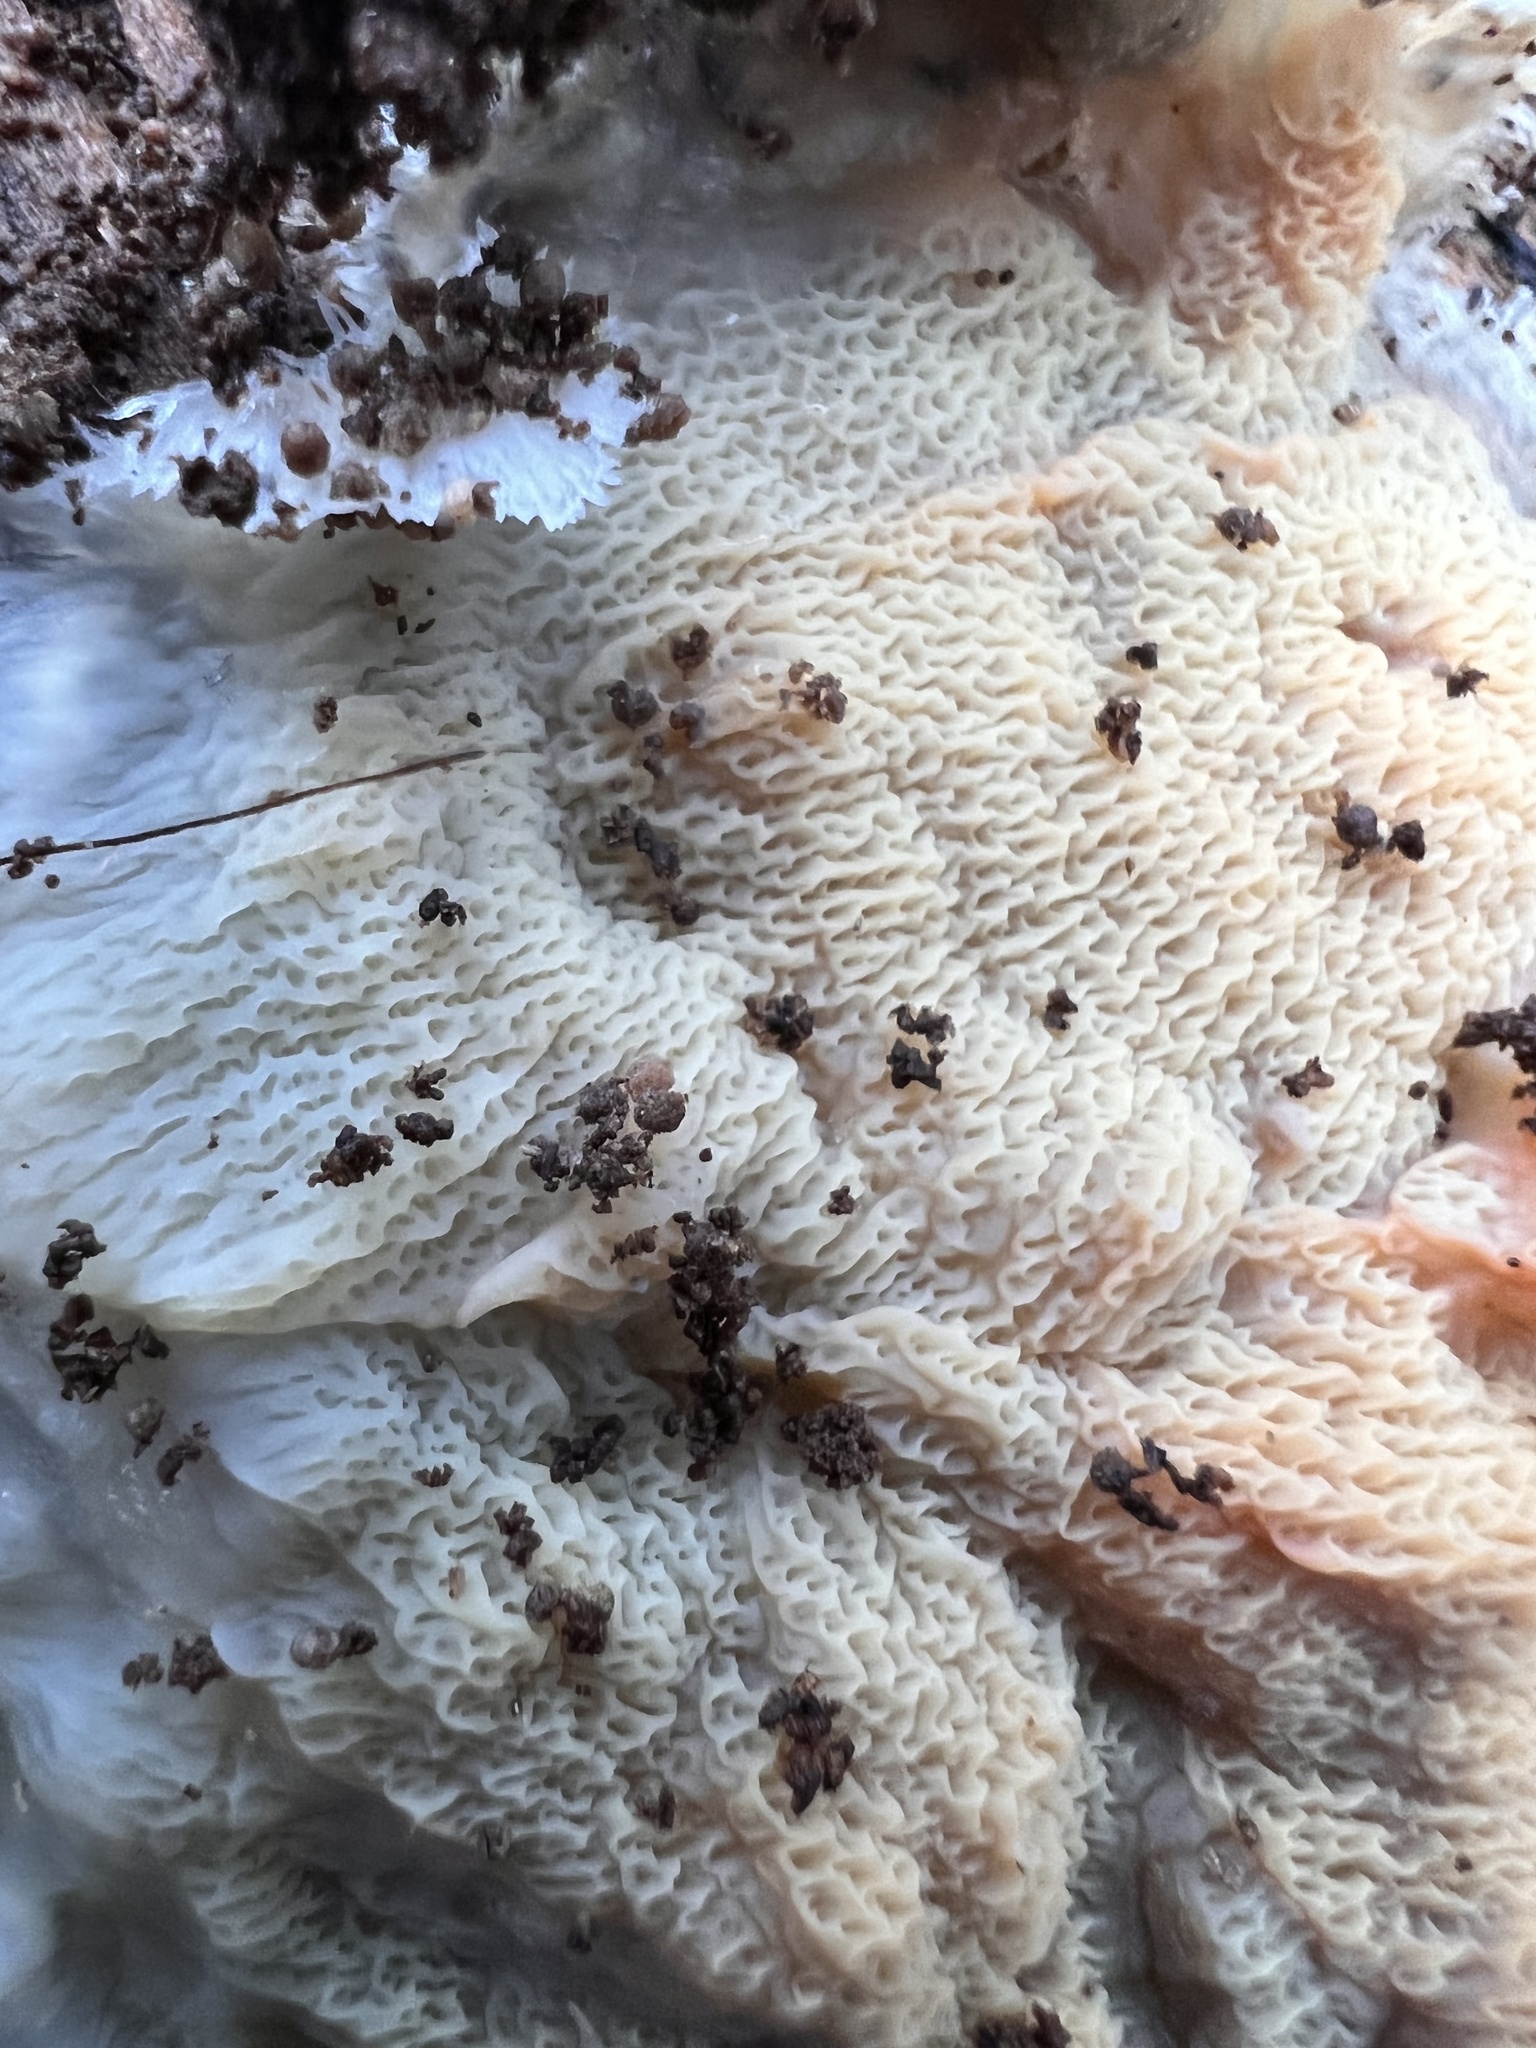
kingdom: Fungi
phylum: Basidiomycota
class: Agaricomycetes
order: Polyporales
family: Meruliaceae
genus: Phlebia
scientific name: Phlebia tremellosa
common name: Jelly rot
